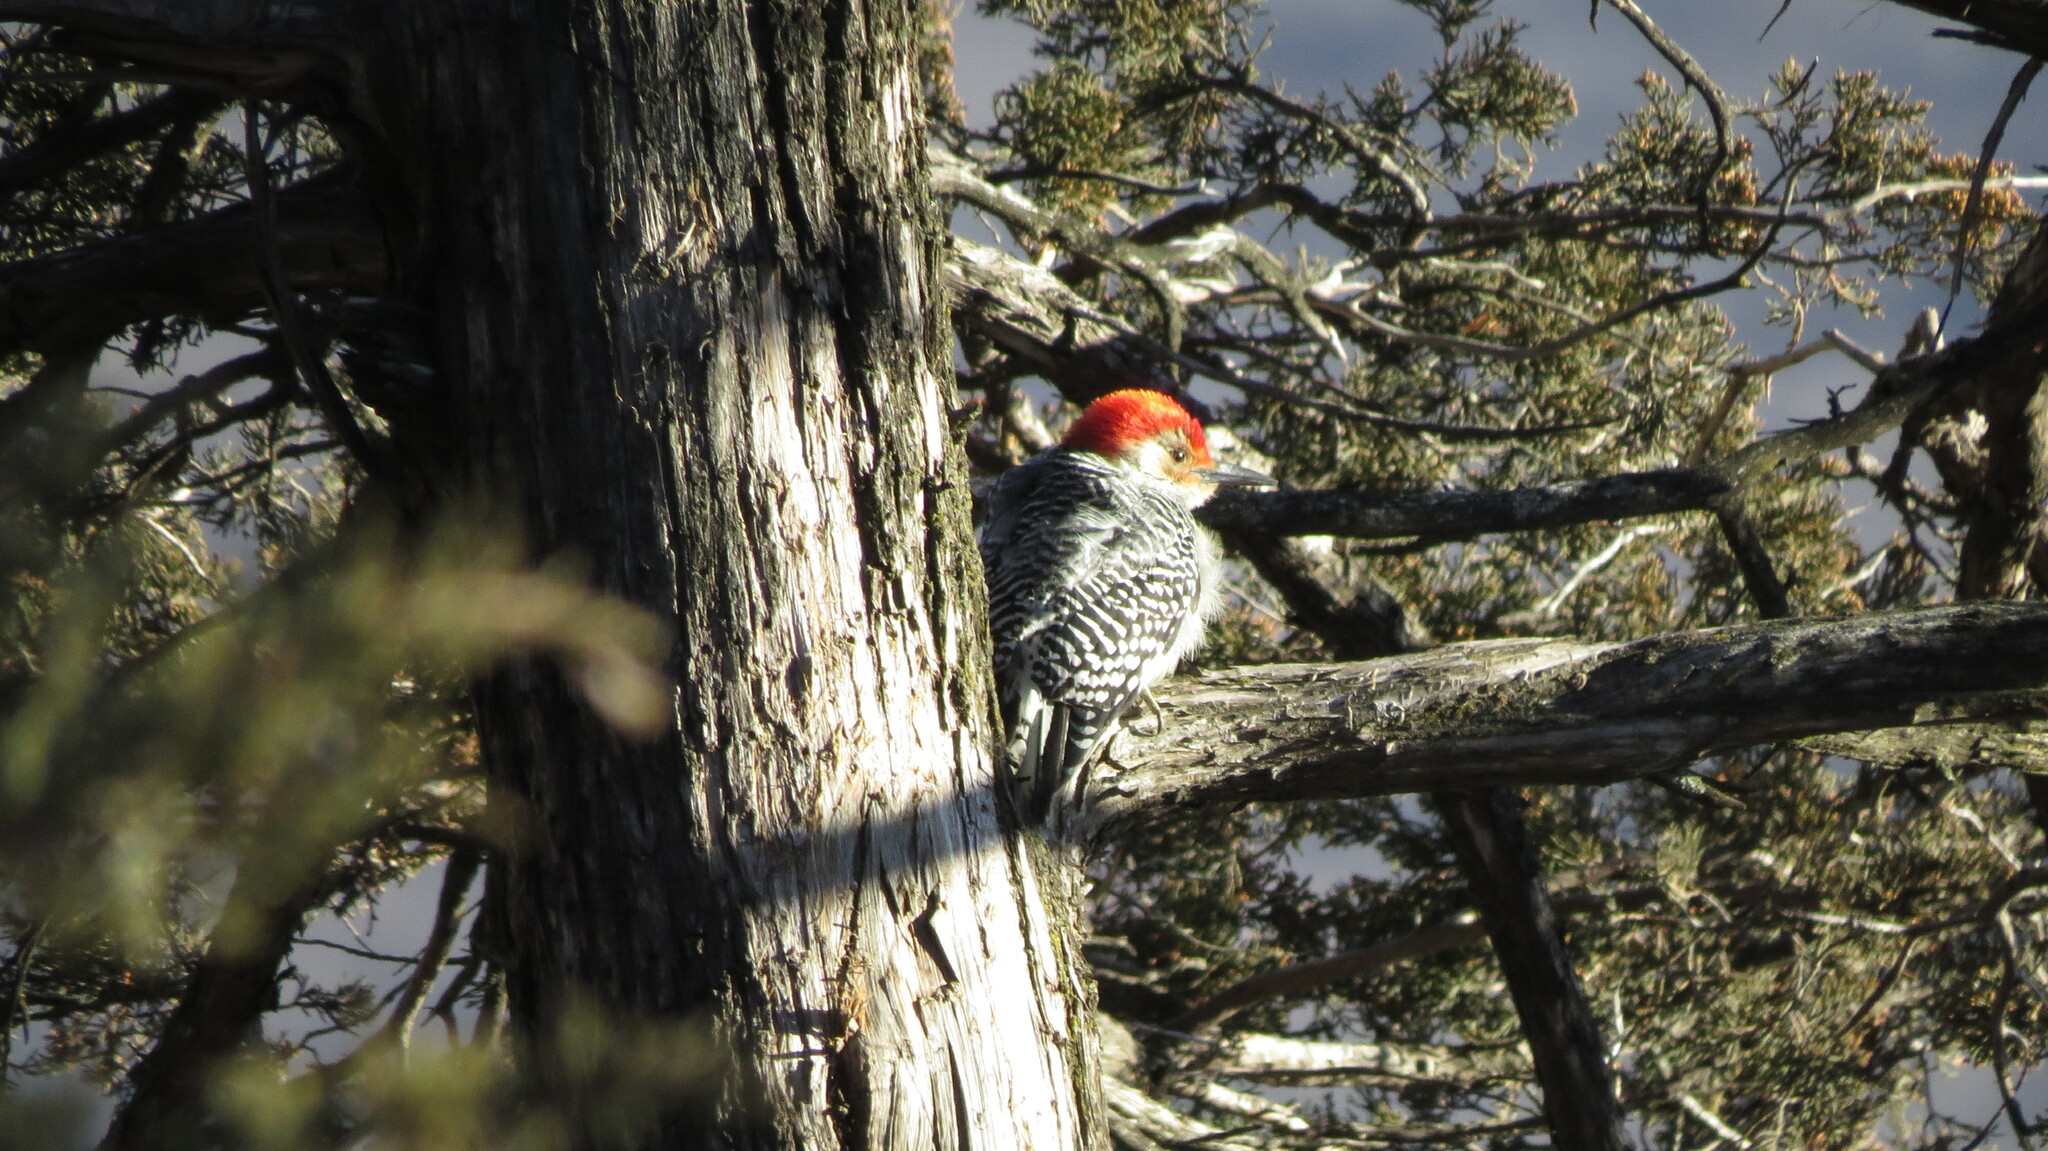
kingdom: Animalia
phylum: Chordata
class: Aves
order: Piciformes
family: Picidae
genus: Melanerpes
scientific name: Melanerpes carolinus
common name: Red-bellied woodpecker
